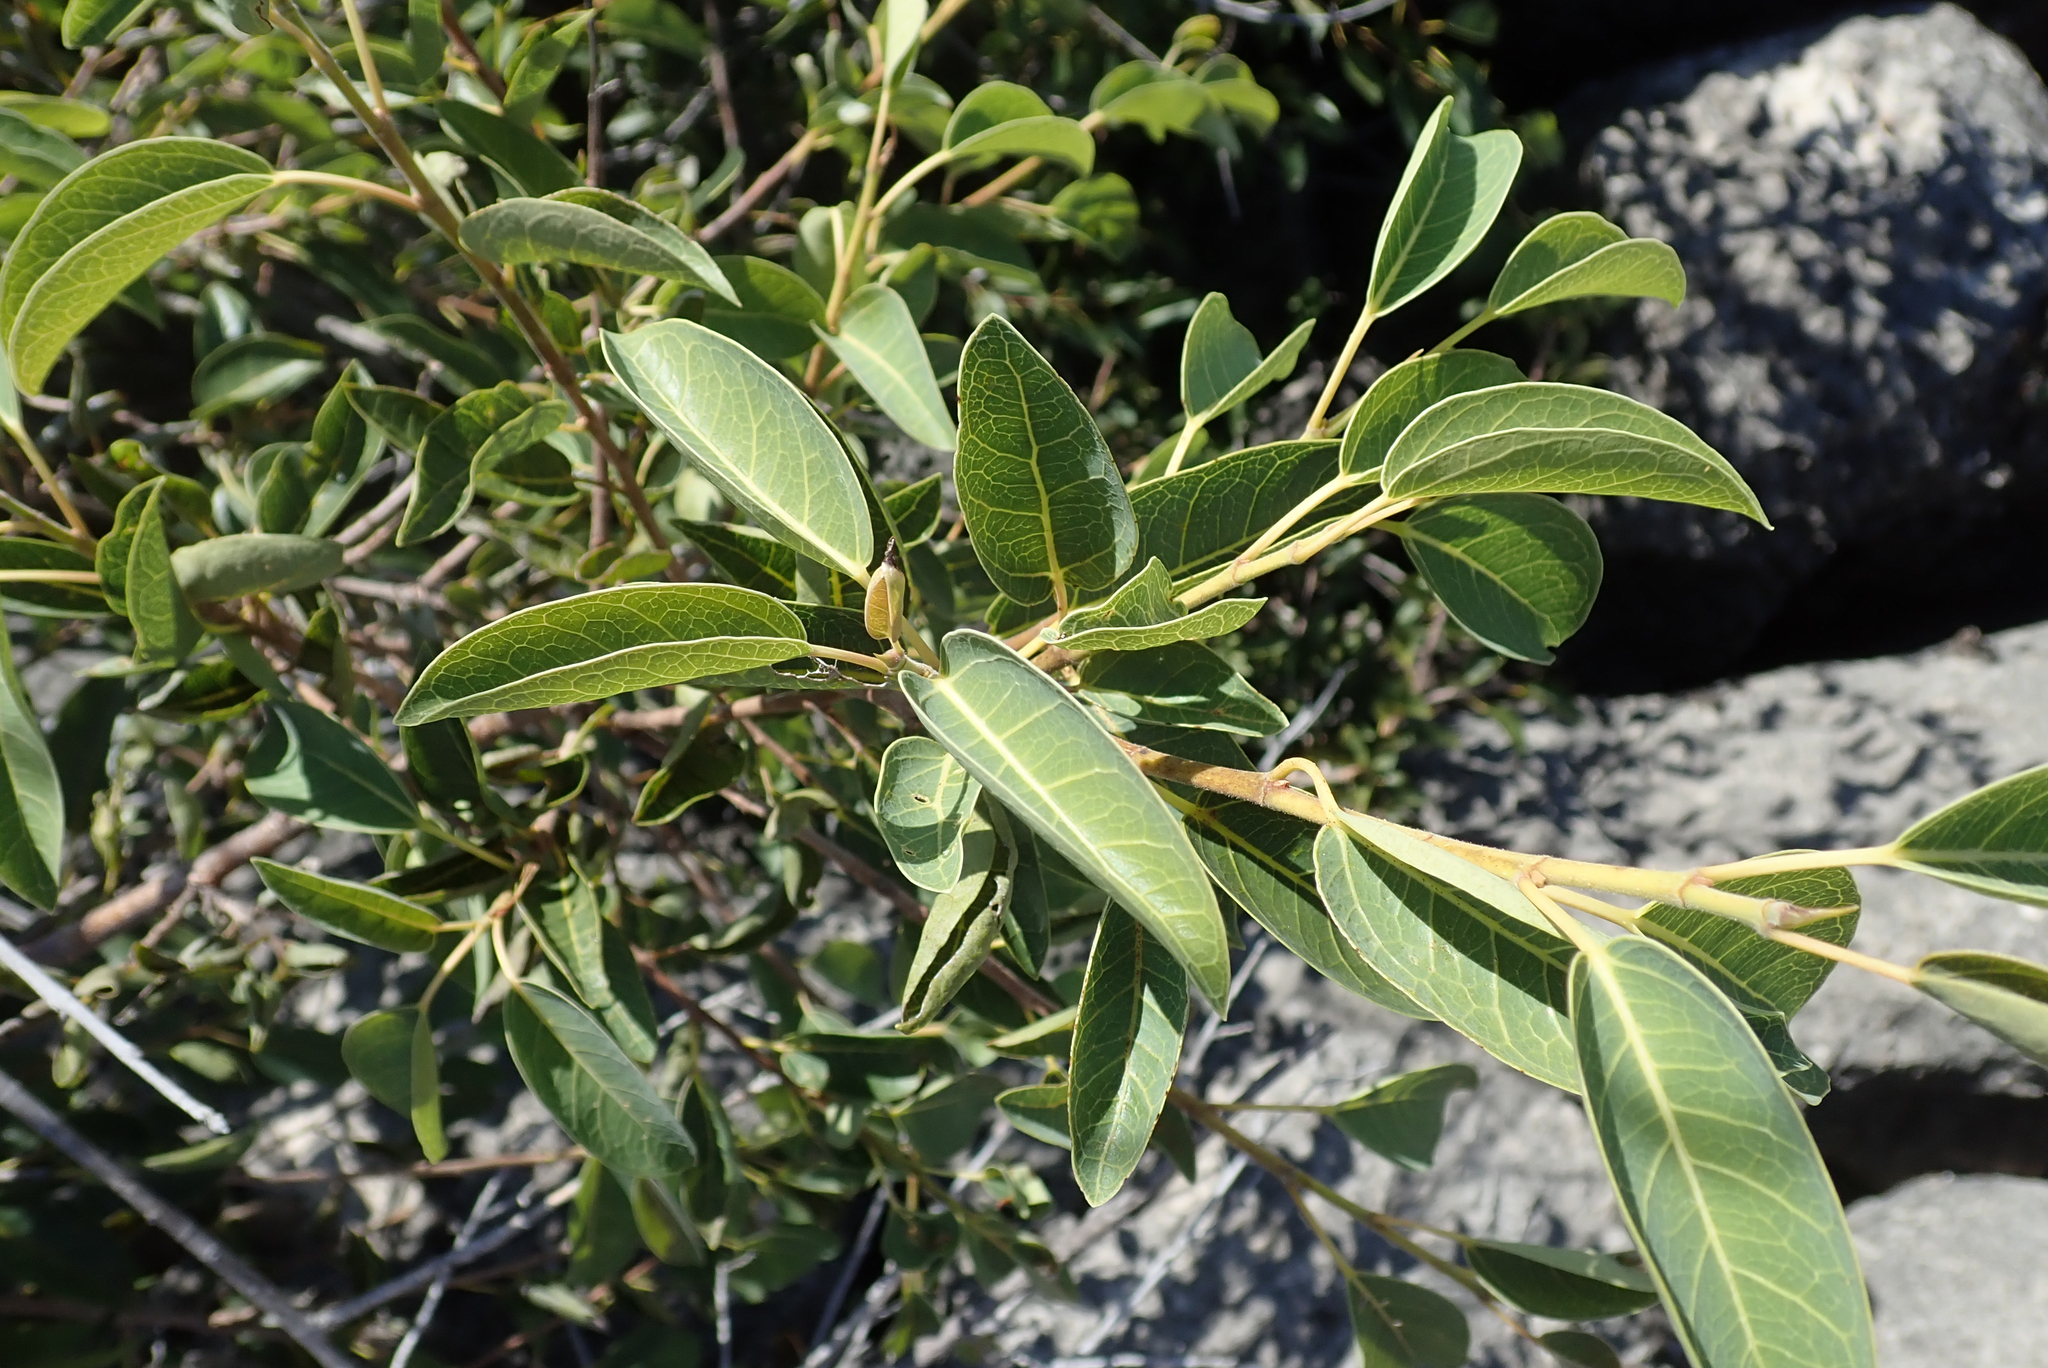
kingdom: Plantae
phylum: Tracheophyta
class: Magnoliopsida
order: Rosales
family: Moraceae
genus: Ficus
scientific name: Ficus cordata
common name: Namaqua rock fig
